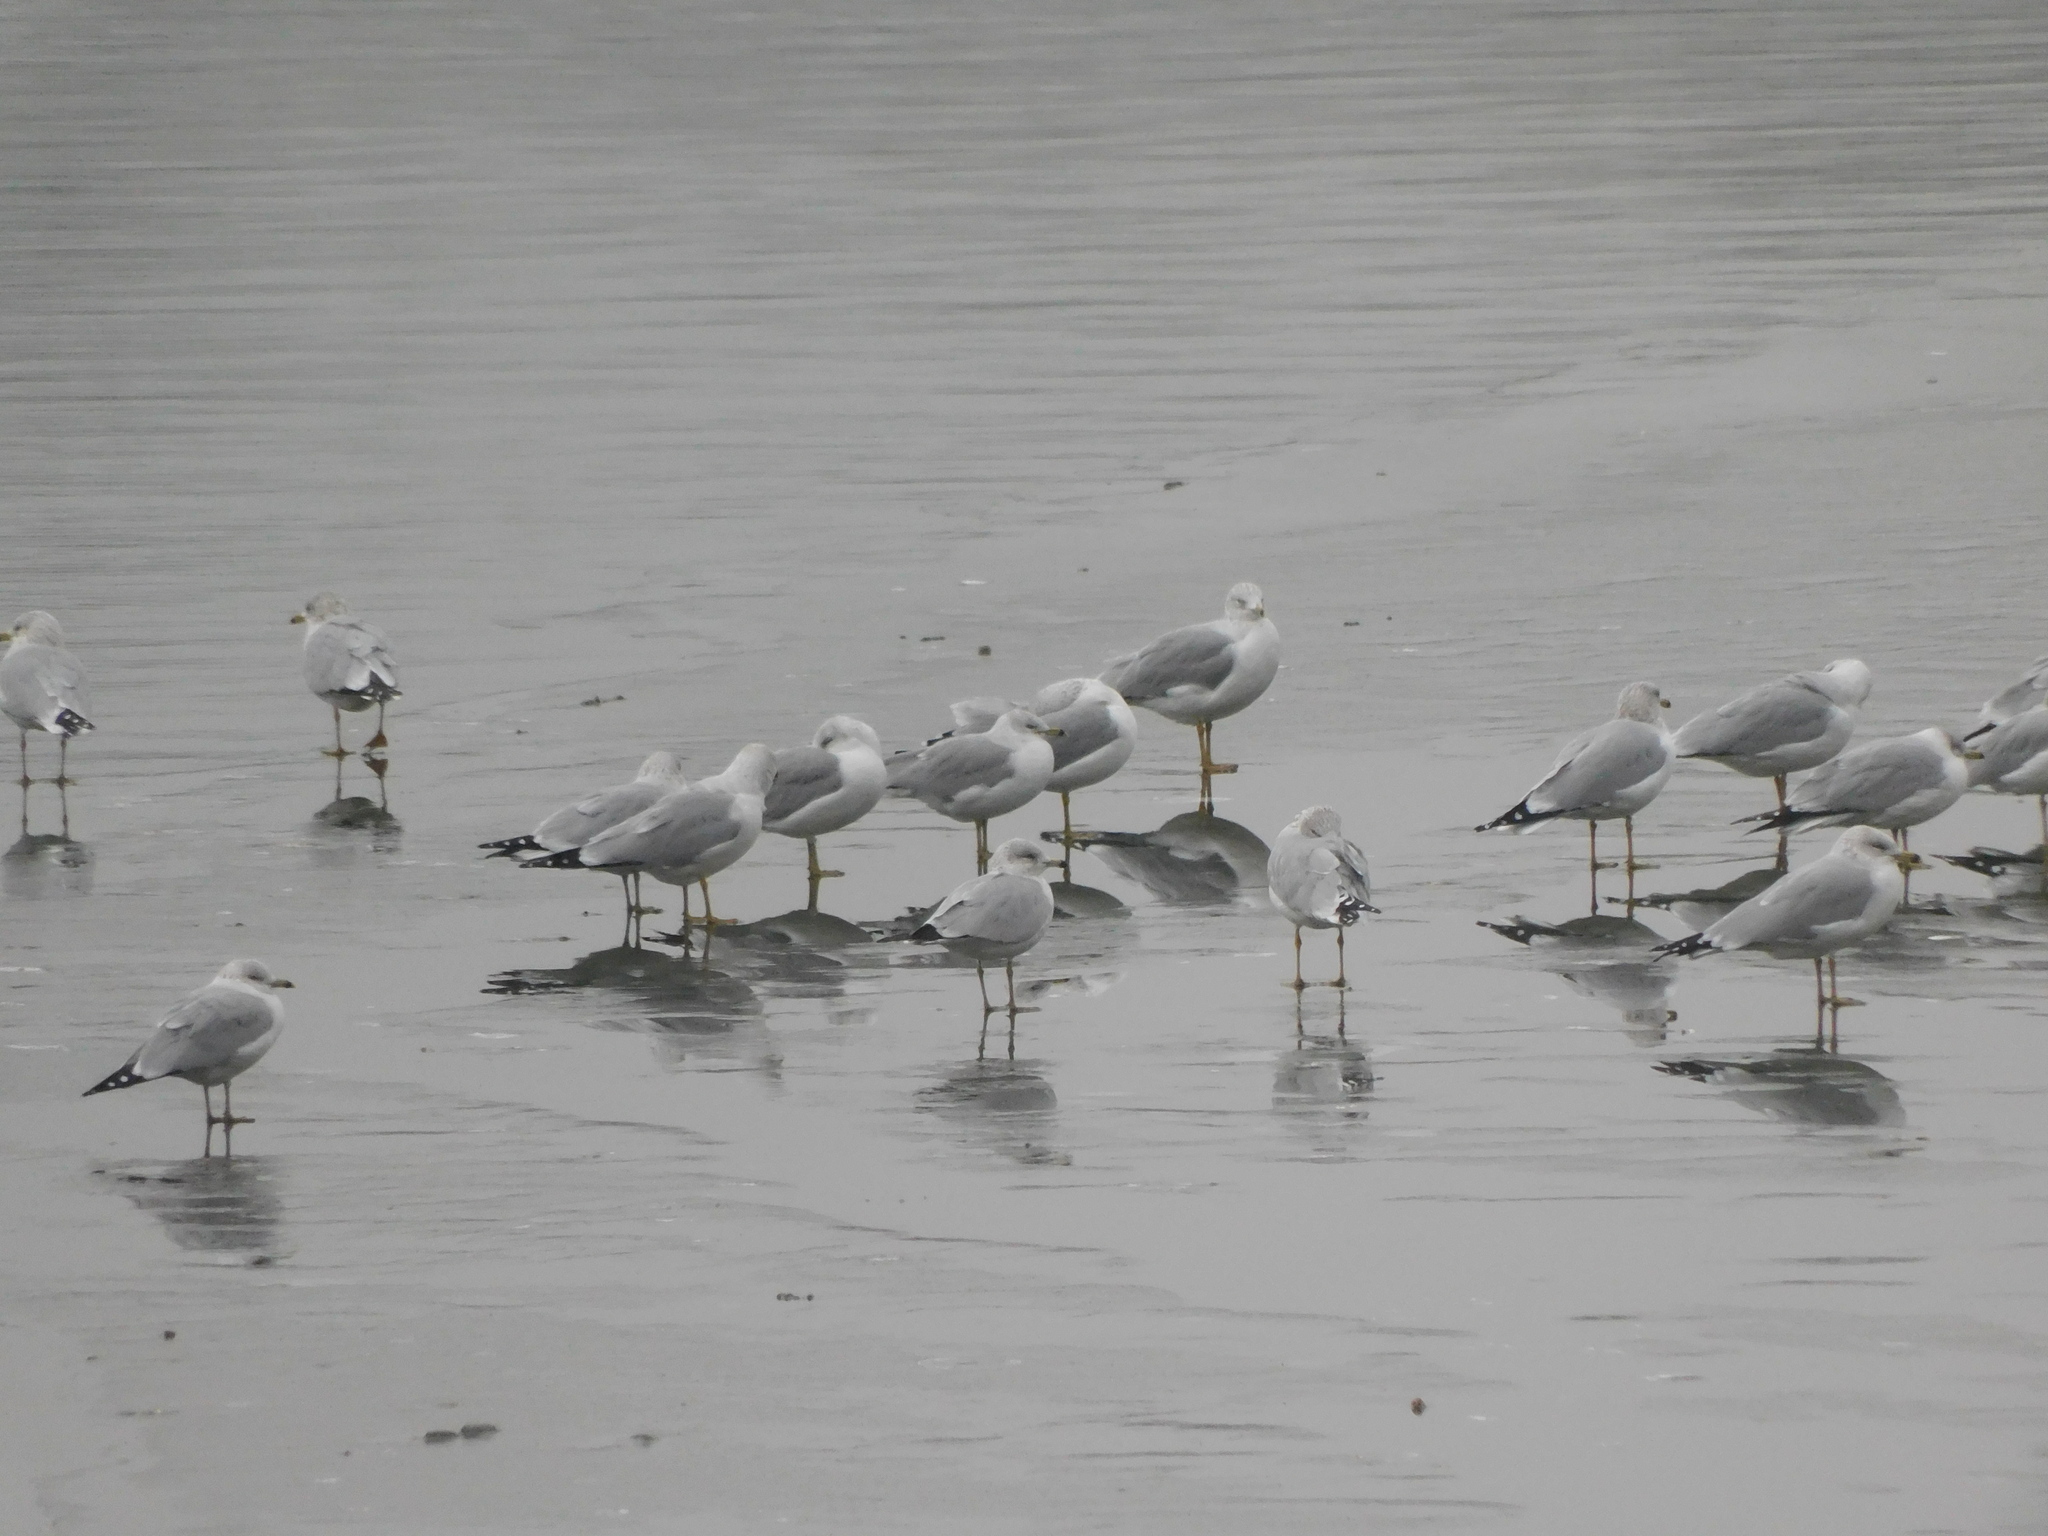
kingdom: Animalia
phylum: Chordata
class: Aves
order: Charadriiformes
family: Laridae
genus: Larus
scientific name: Larus delawarensis
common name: Ring-billed gull
